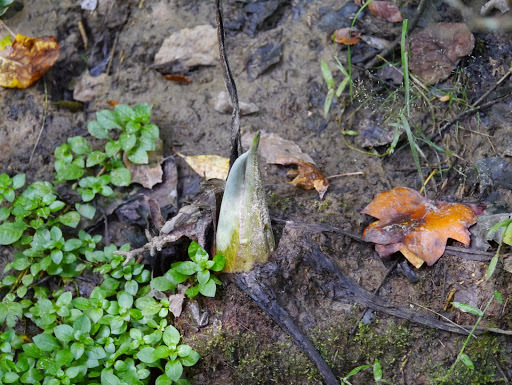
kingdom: Plantae
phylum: Tracheophyta
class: Liliopsida
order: Alismatales
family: Araceae
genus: Symplocarpus
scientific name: Symplocarpus foetidus
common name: Eastern skunk cabbage
